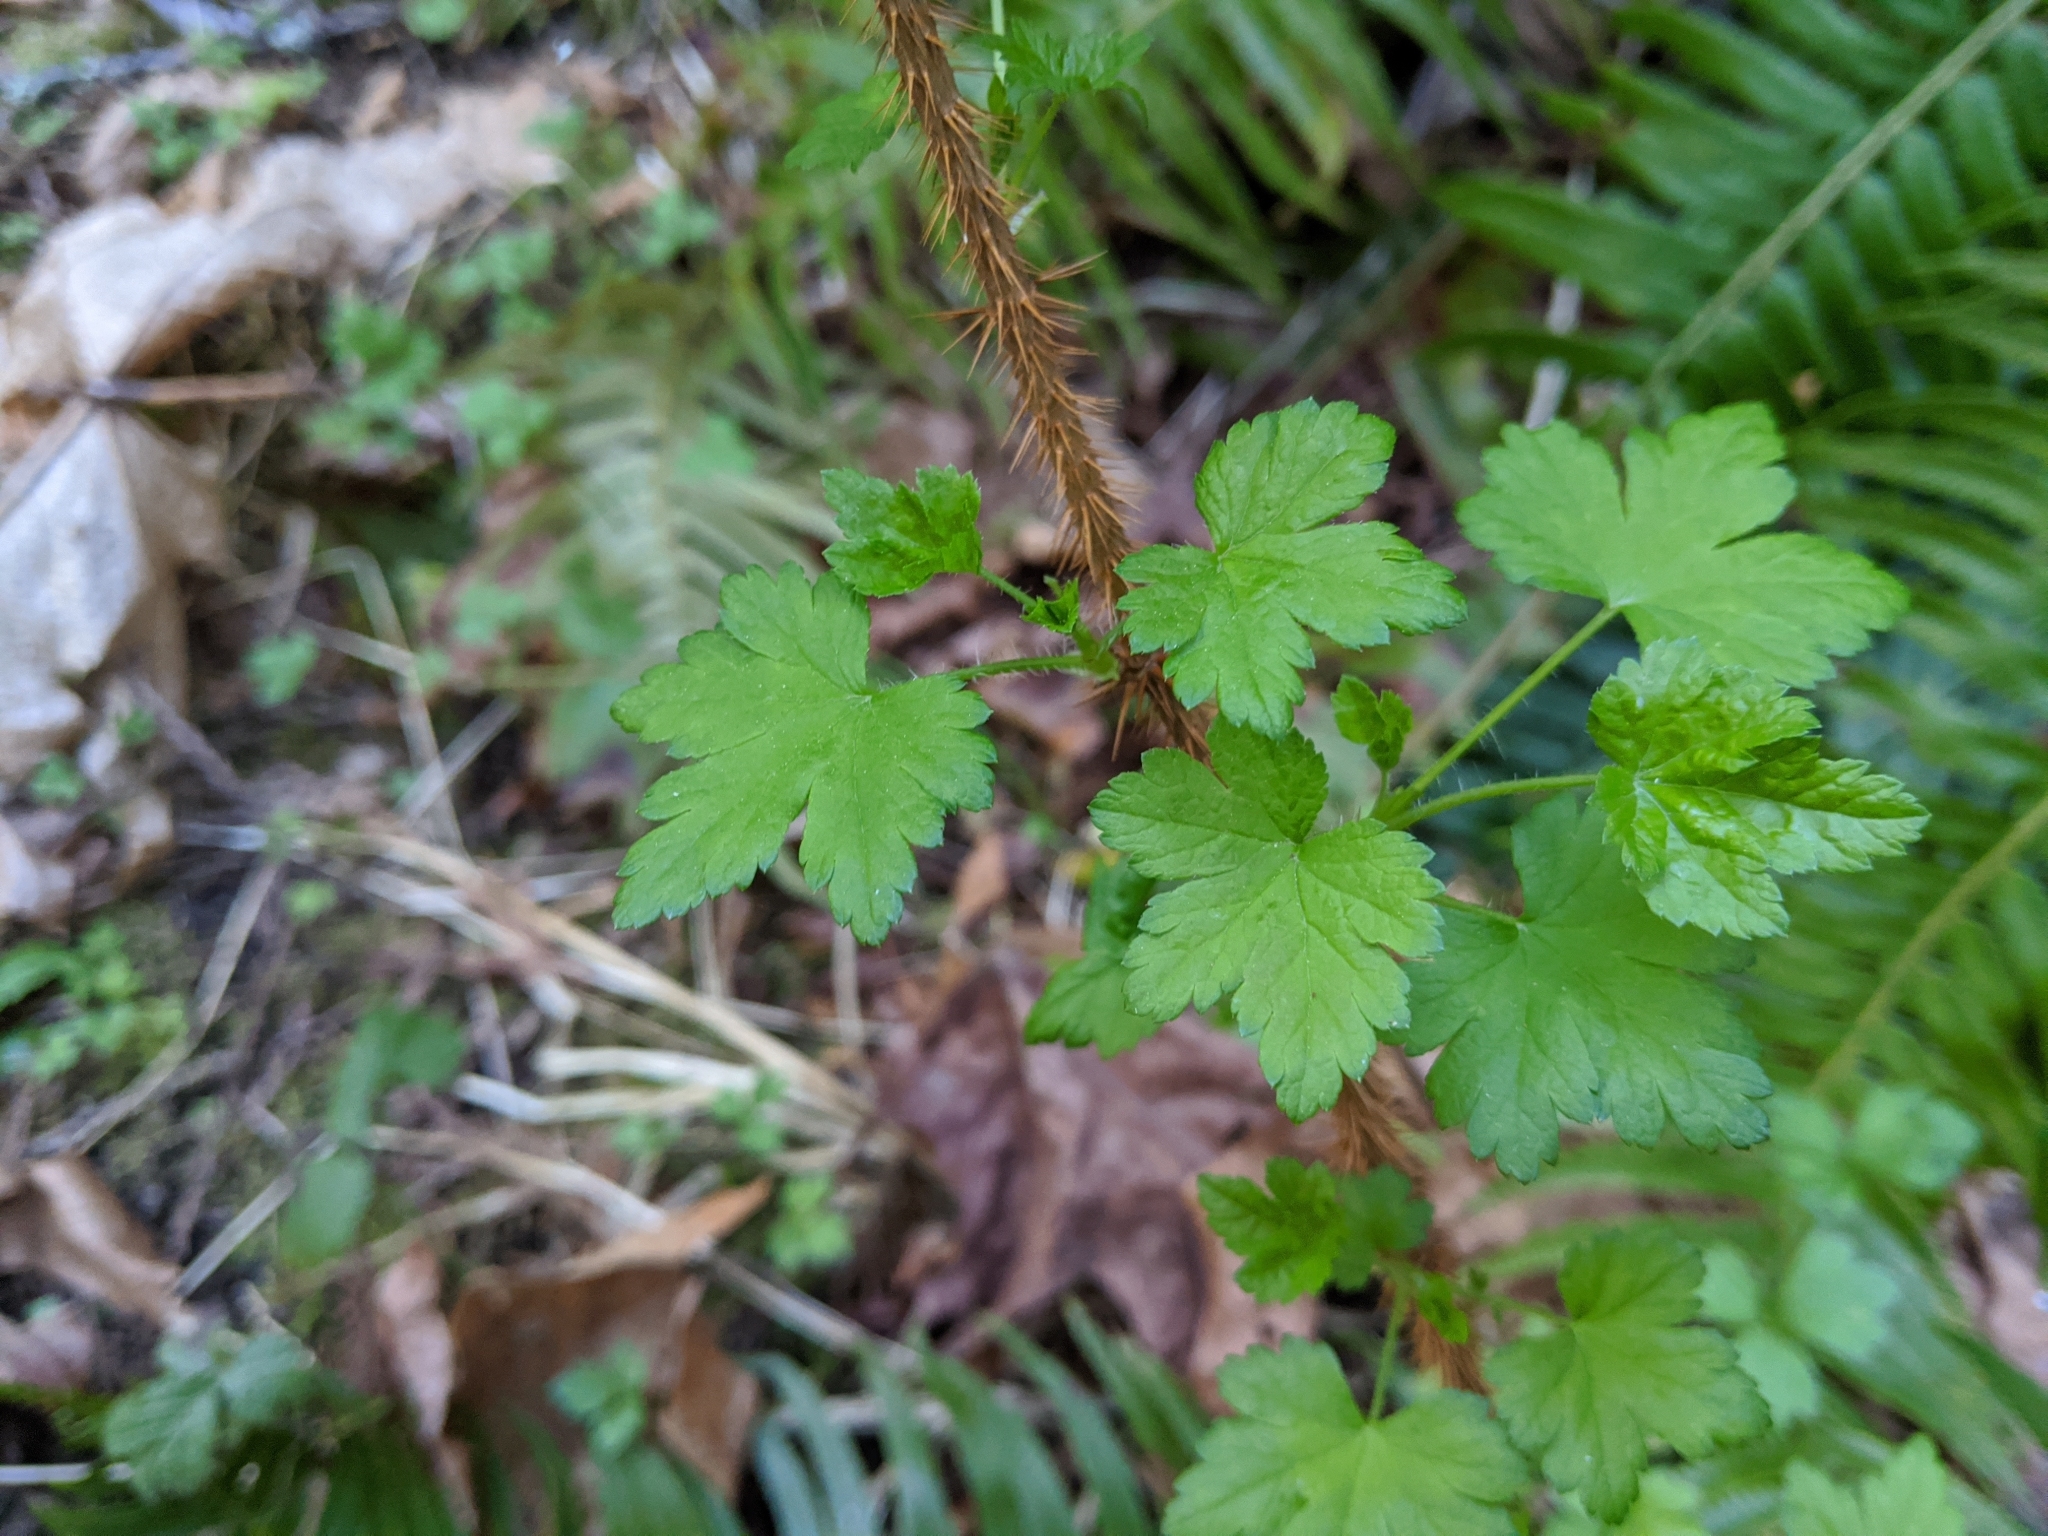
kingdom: Plantae
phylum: Tracheophyta
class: Magnoliopsida
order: Saxifragales
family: Grossulariaceae
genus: Ribes
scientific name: Ribes lacustre
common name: Black gooseberry
